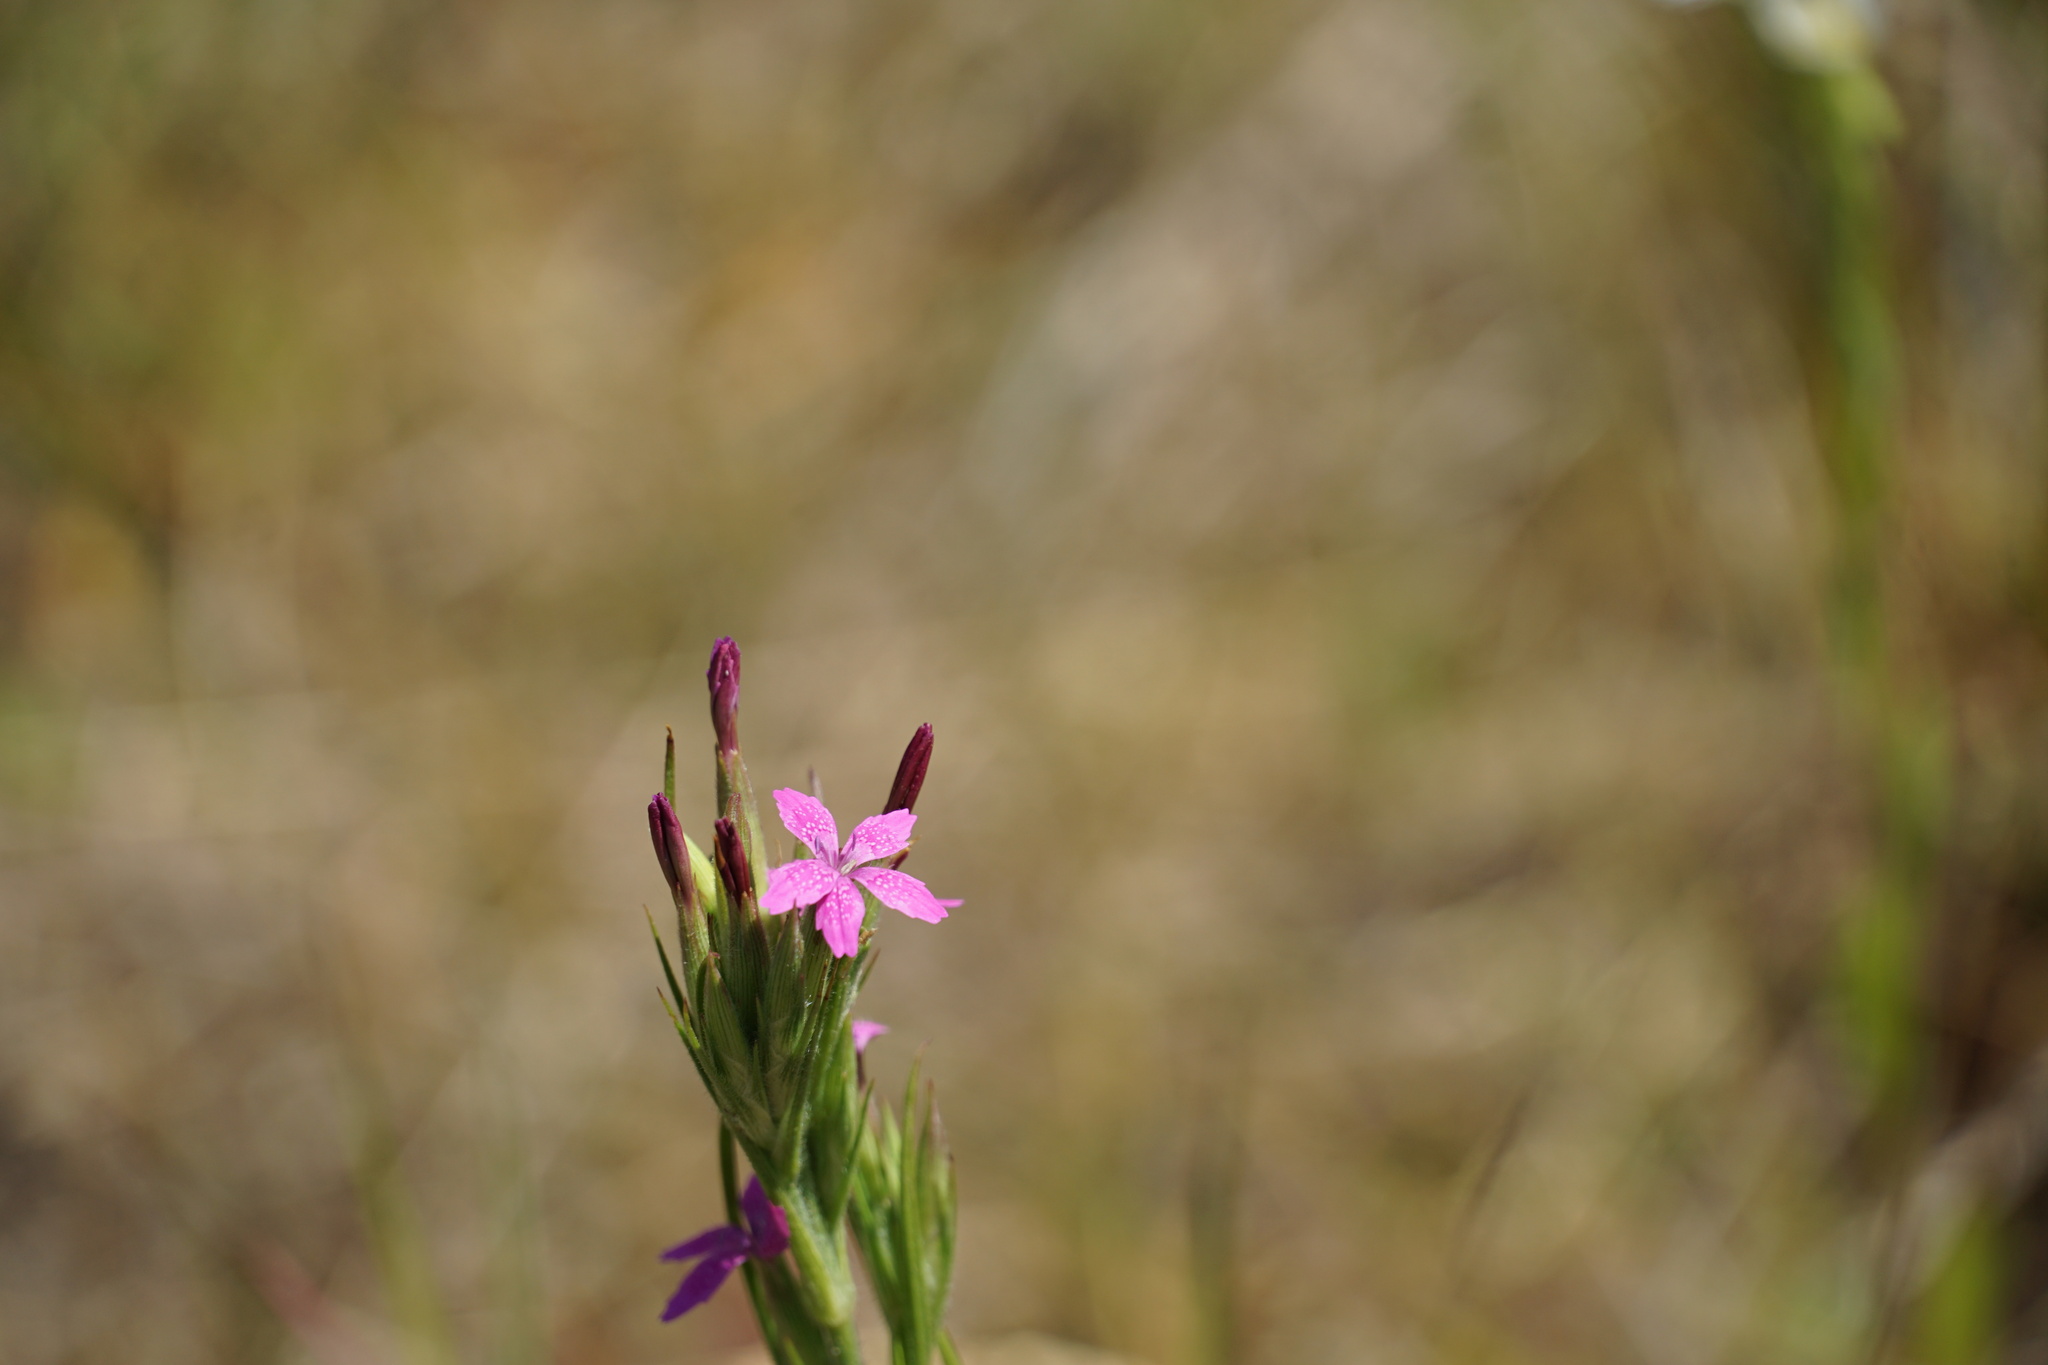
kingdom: Plantae
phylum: Tracheophyta
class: Magnoliopsida
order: Caryophyllales
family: Caryophyllaceae
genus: Dianthus
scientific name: Dianthus armeria
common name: Deptford pink
